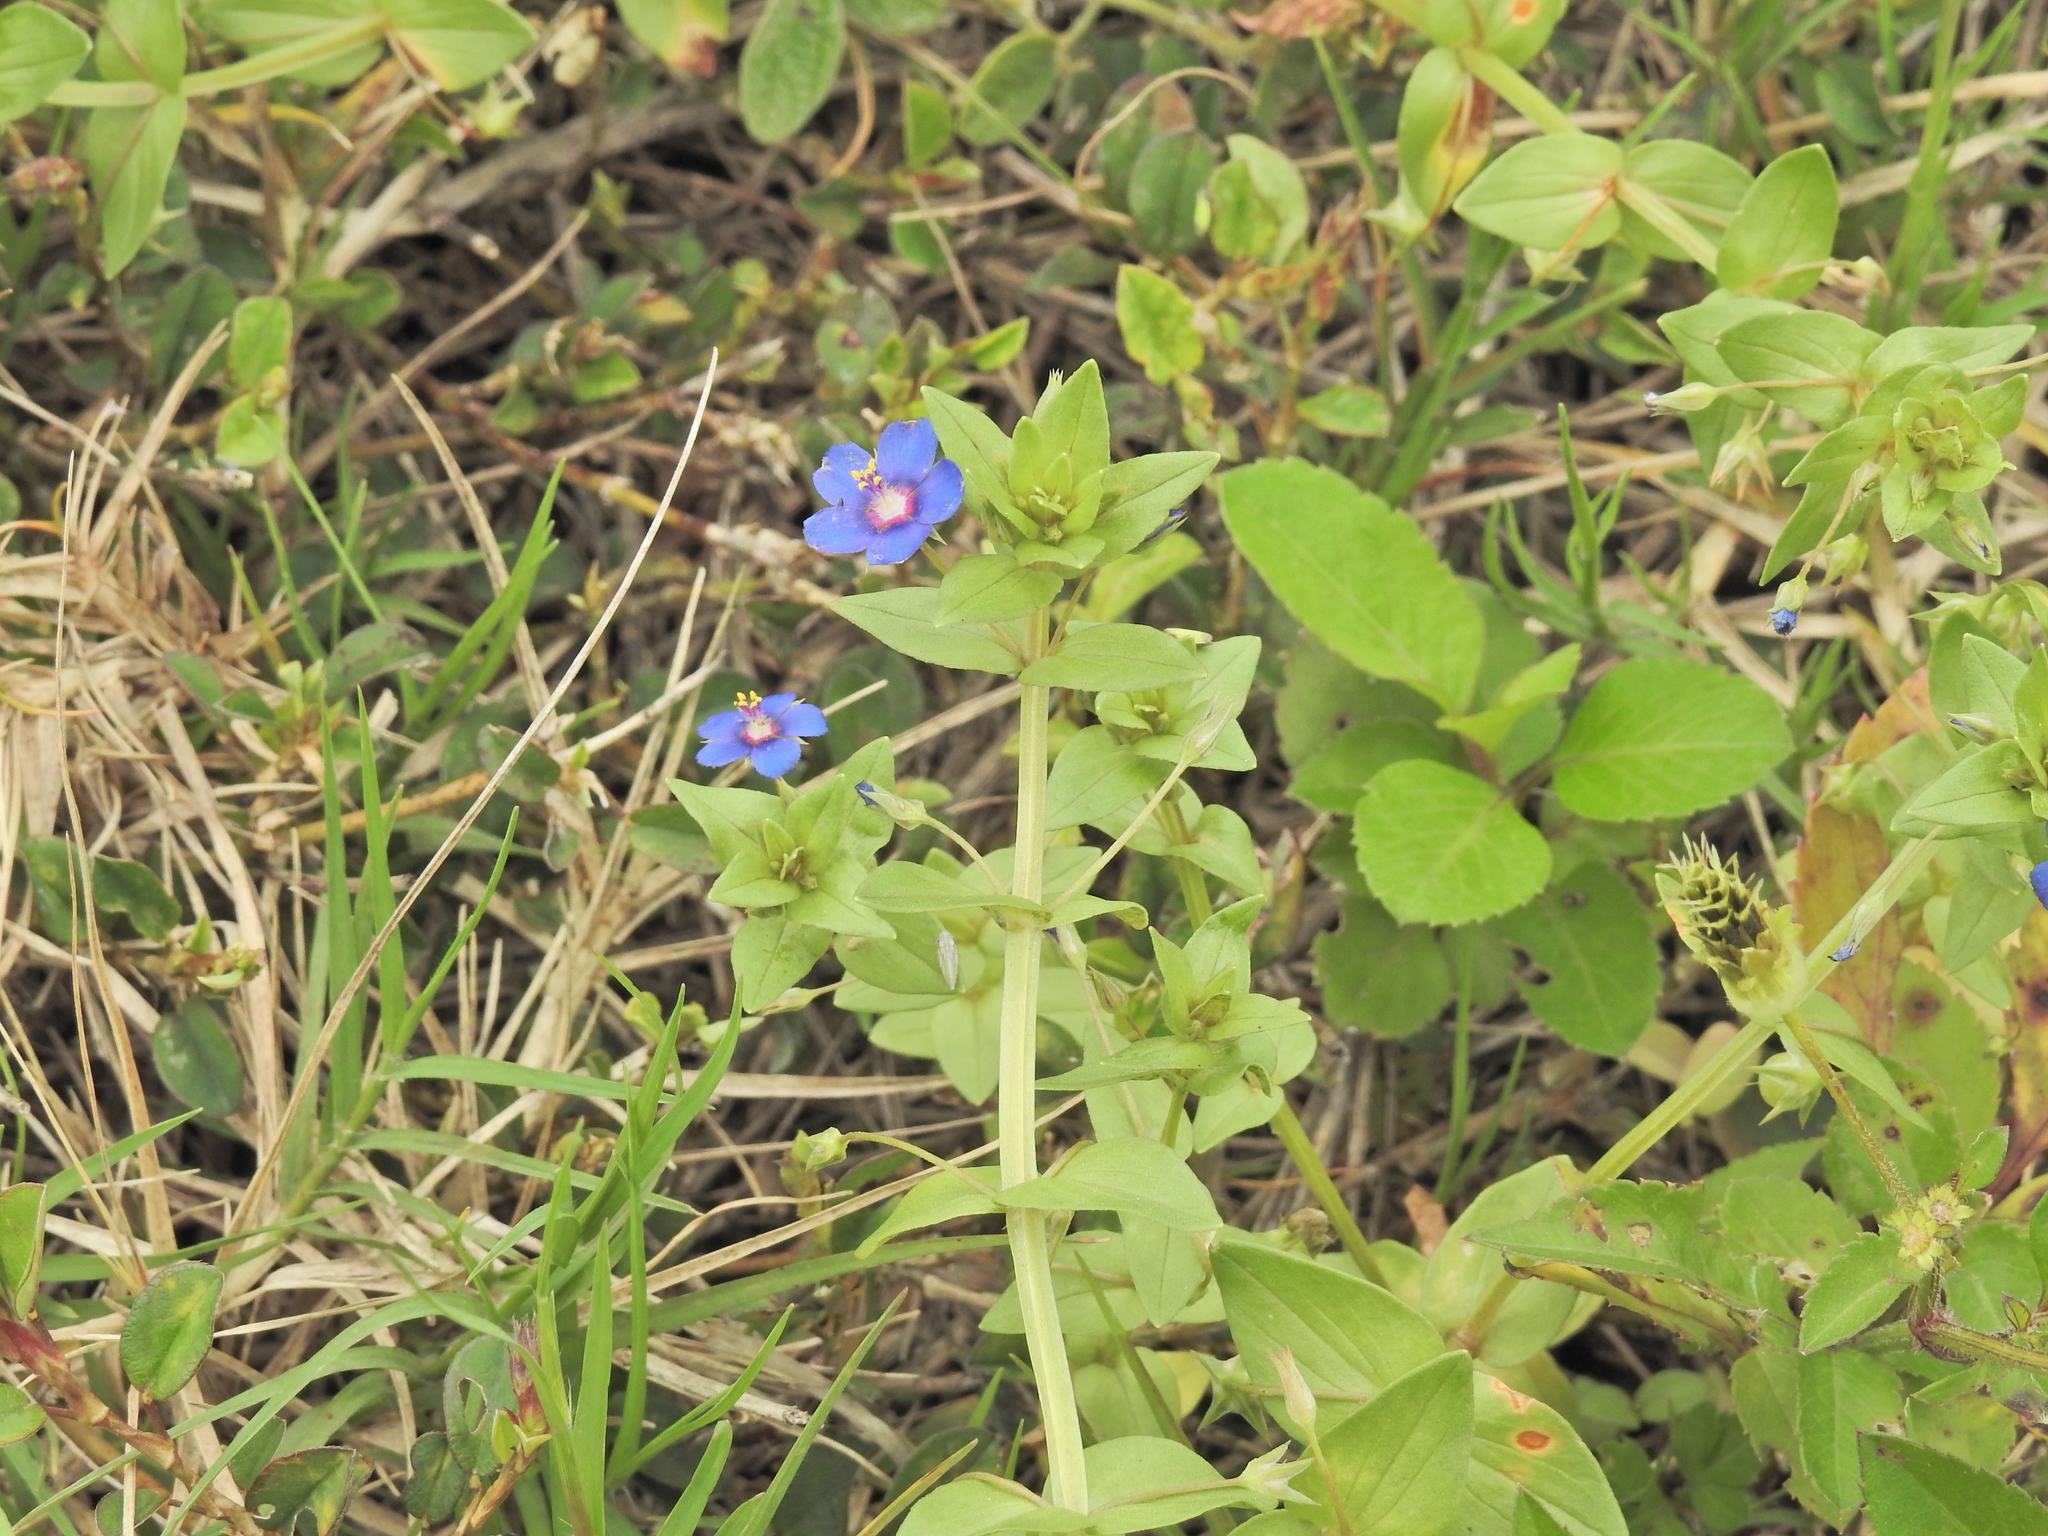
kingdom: Plantae
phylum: Tracheophyta
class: Magnoliopsida
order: Ericales
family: Primulaceae
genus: Lysimachia
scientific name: Lysimachia loeflingii
